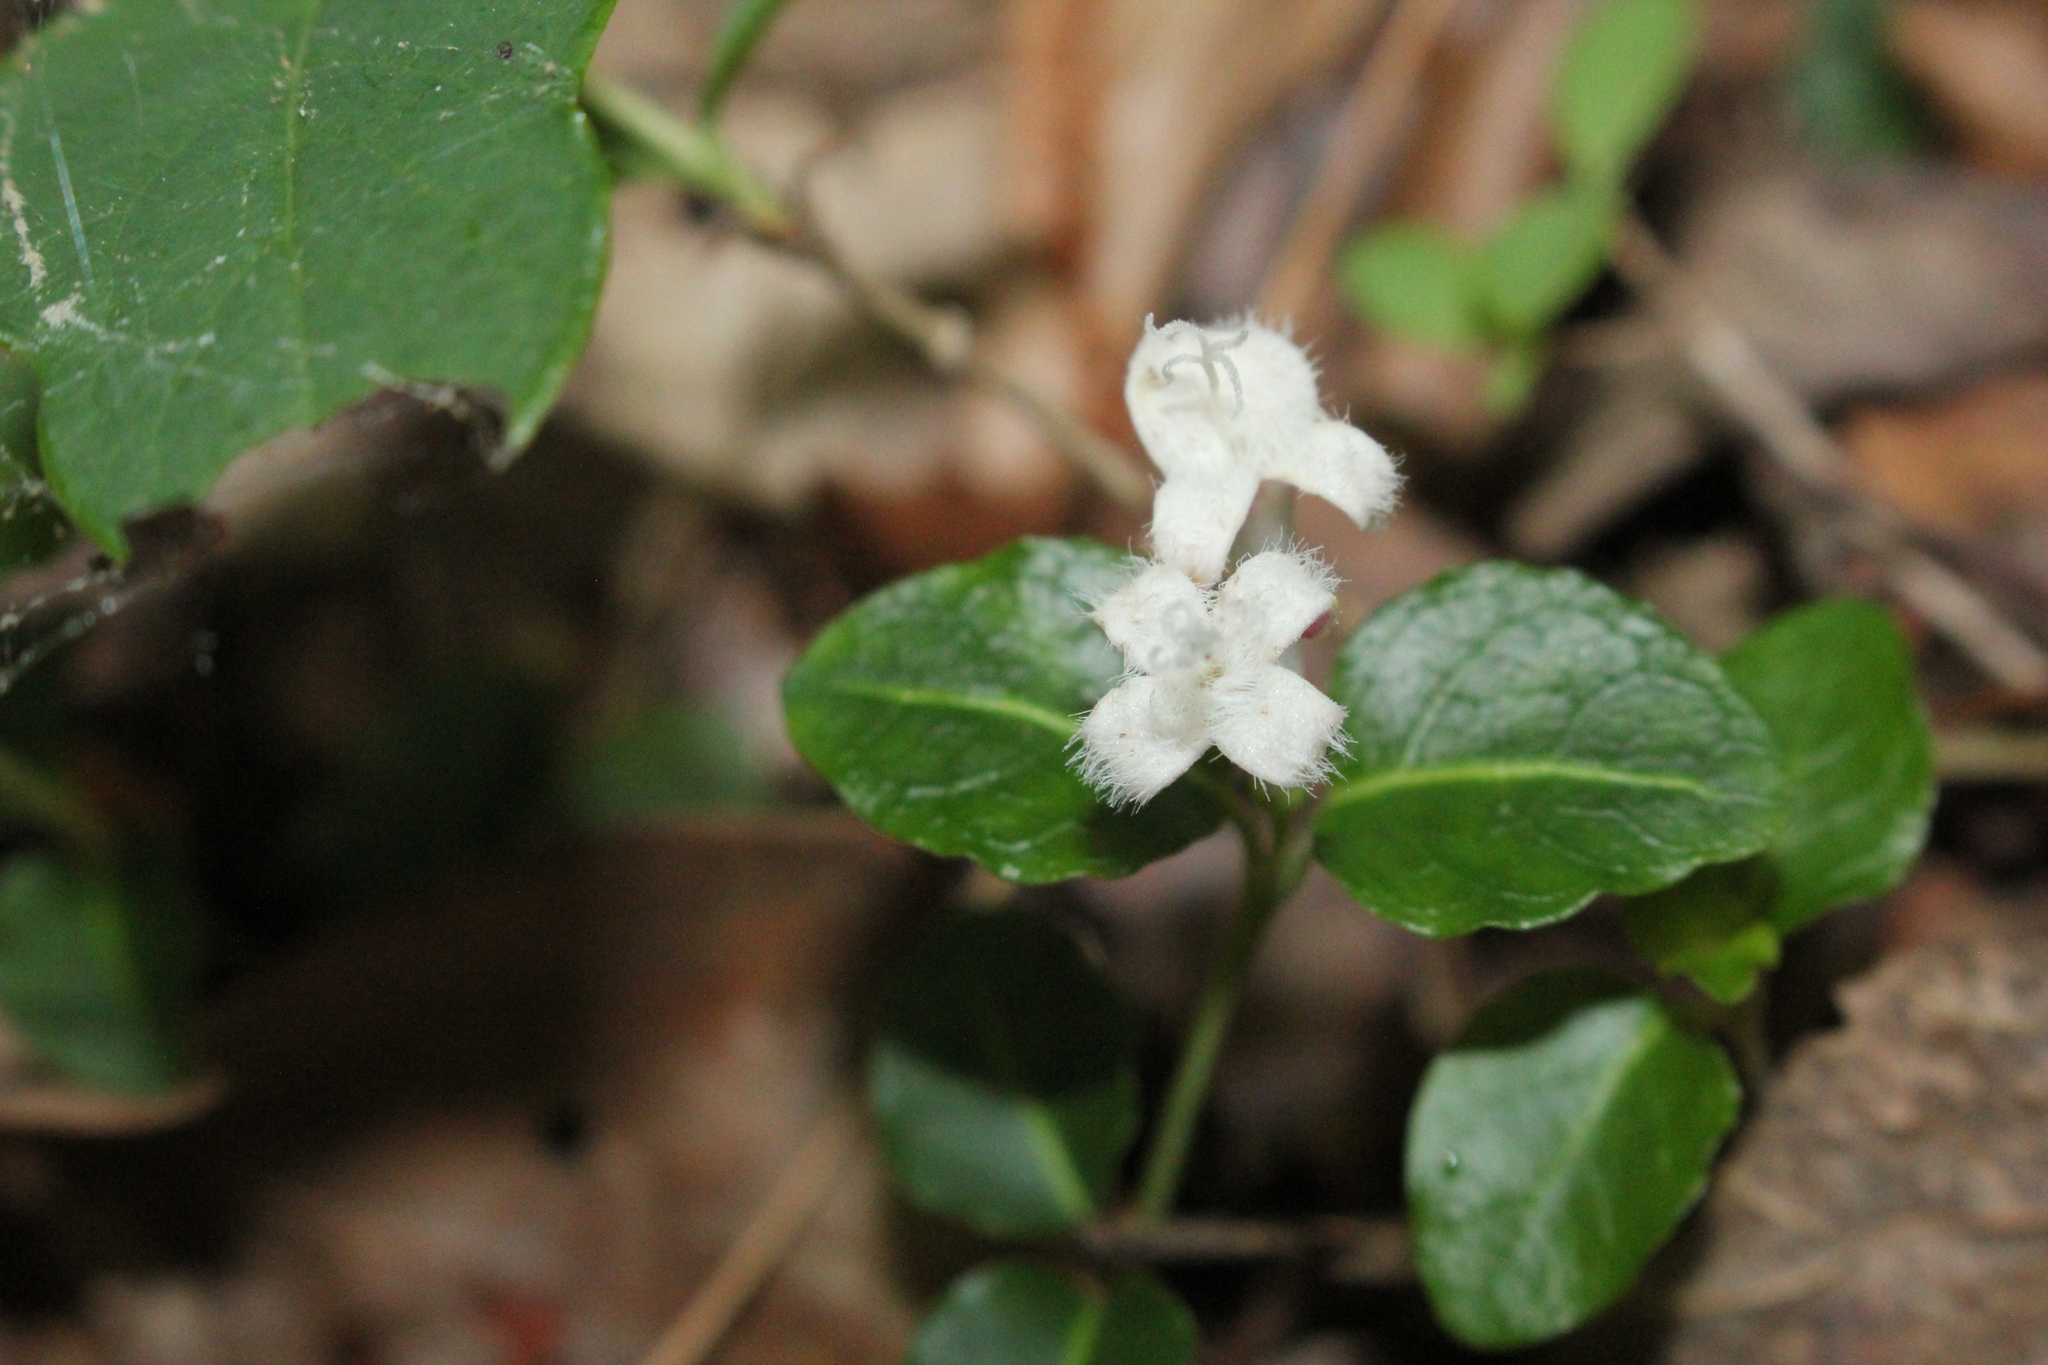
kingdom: Plantae
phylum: Tracheophyta
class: Magnoliopsida
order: Gentianales
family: Rubiaceae
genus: Mitchella
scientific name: Mitchella repens
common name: Partridge-berry
